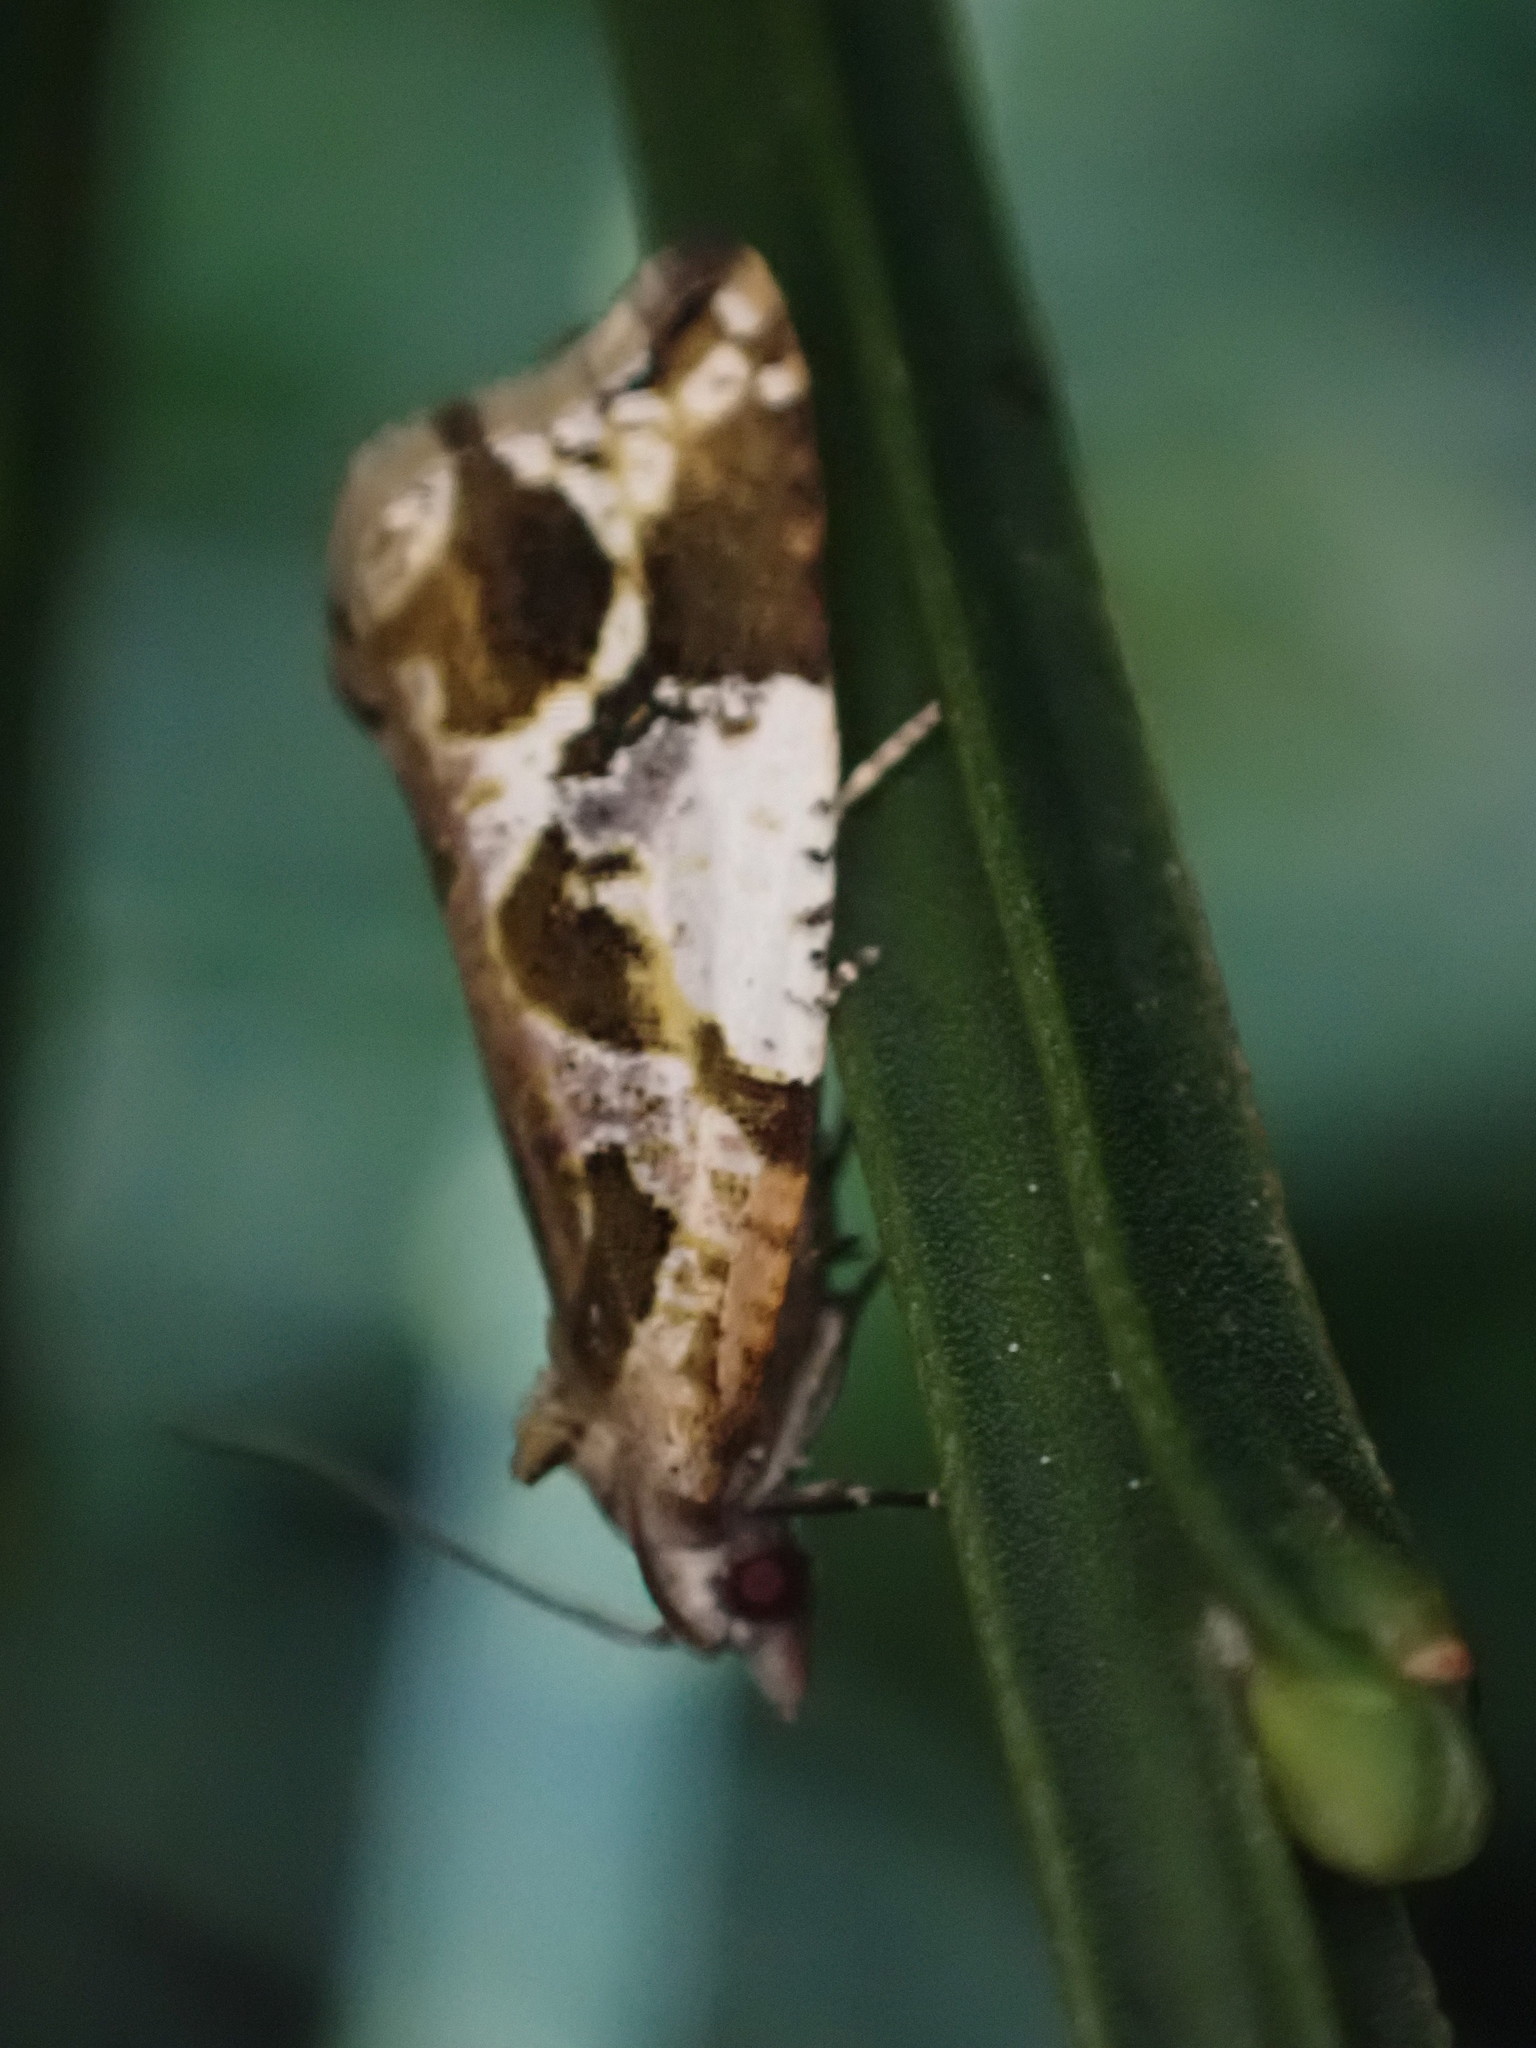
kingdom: Animalia
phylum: Arthropoda
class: Insecta
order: Lepidoptera
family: Tortricidae
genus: Pyrgotis
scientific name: Pyrgotis plagiatana
